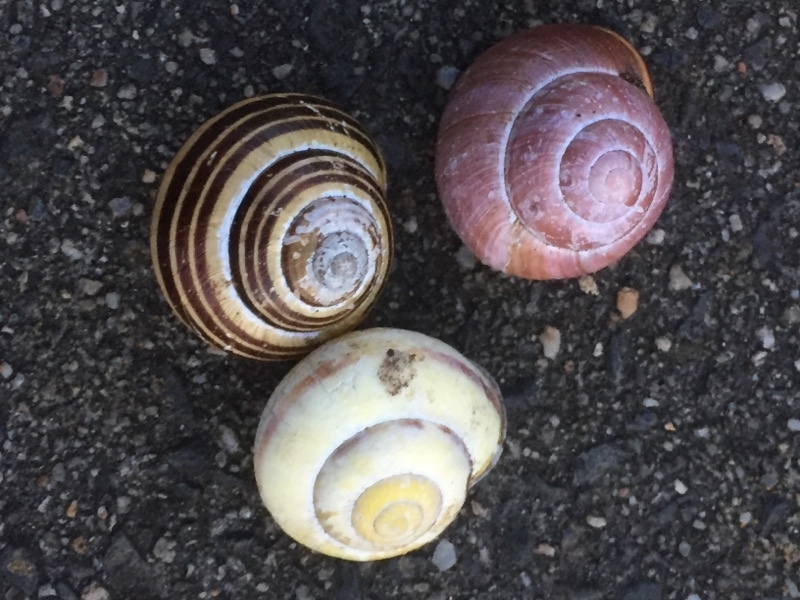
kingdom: Animalia
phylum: Mollusca
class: Gastropoda
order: Stylommatophora
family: Helicidae
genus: Cepaea
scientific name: Cepaea nemoralis
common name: Grovesnail
